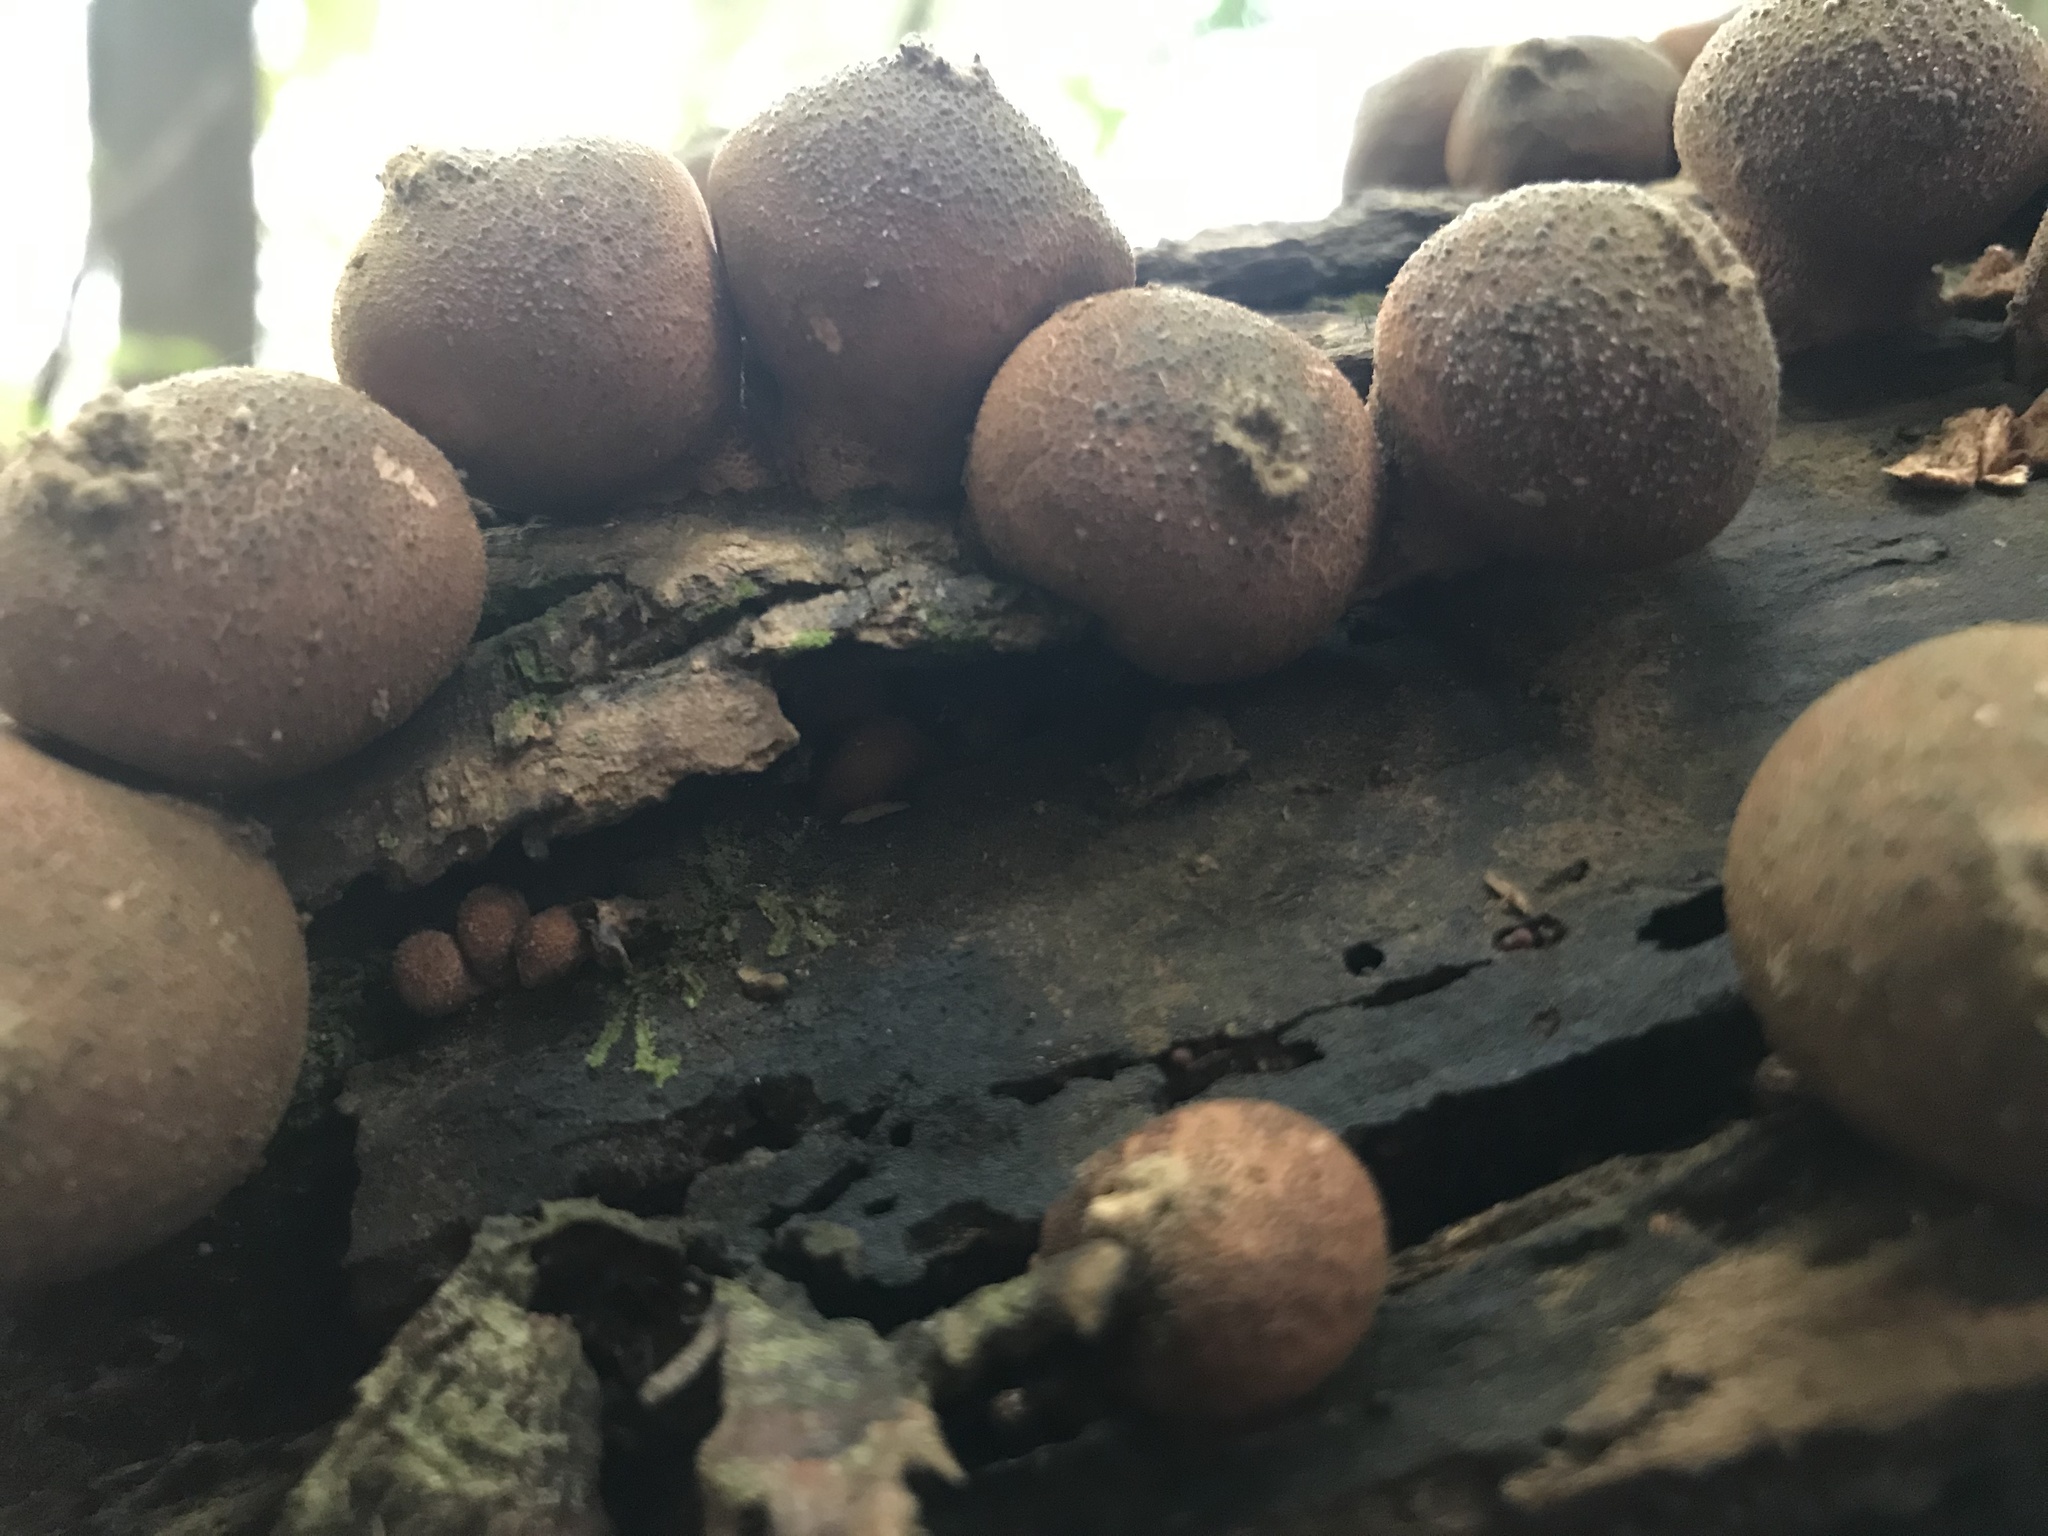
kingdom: Fungi
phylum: Basidiomycota
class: Agaricomycetes
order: Agaricales
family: Lycoperdaceae
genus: Apioperdon
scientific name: Apioperdon pyriforme
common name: Pear-shaped puffball
